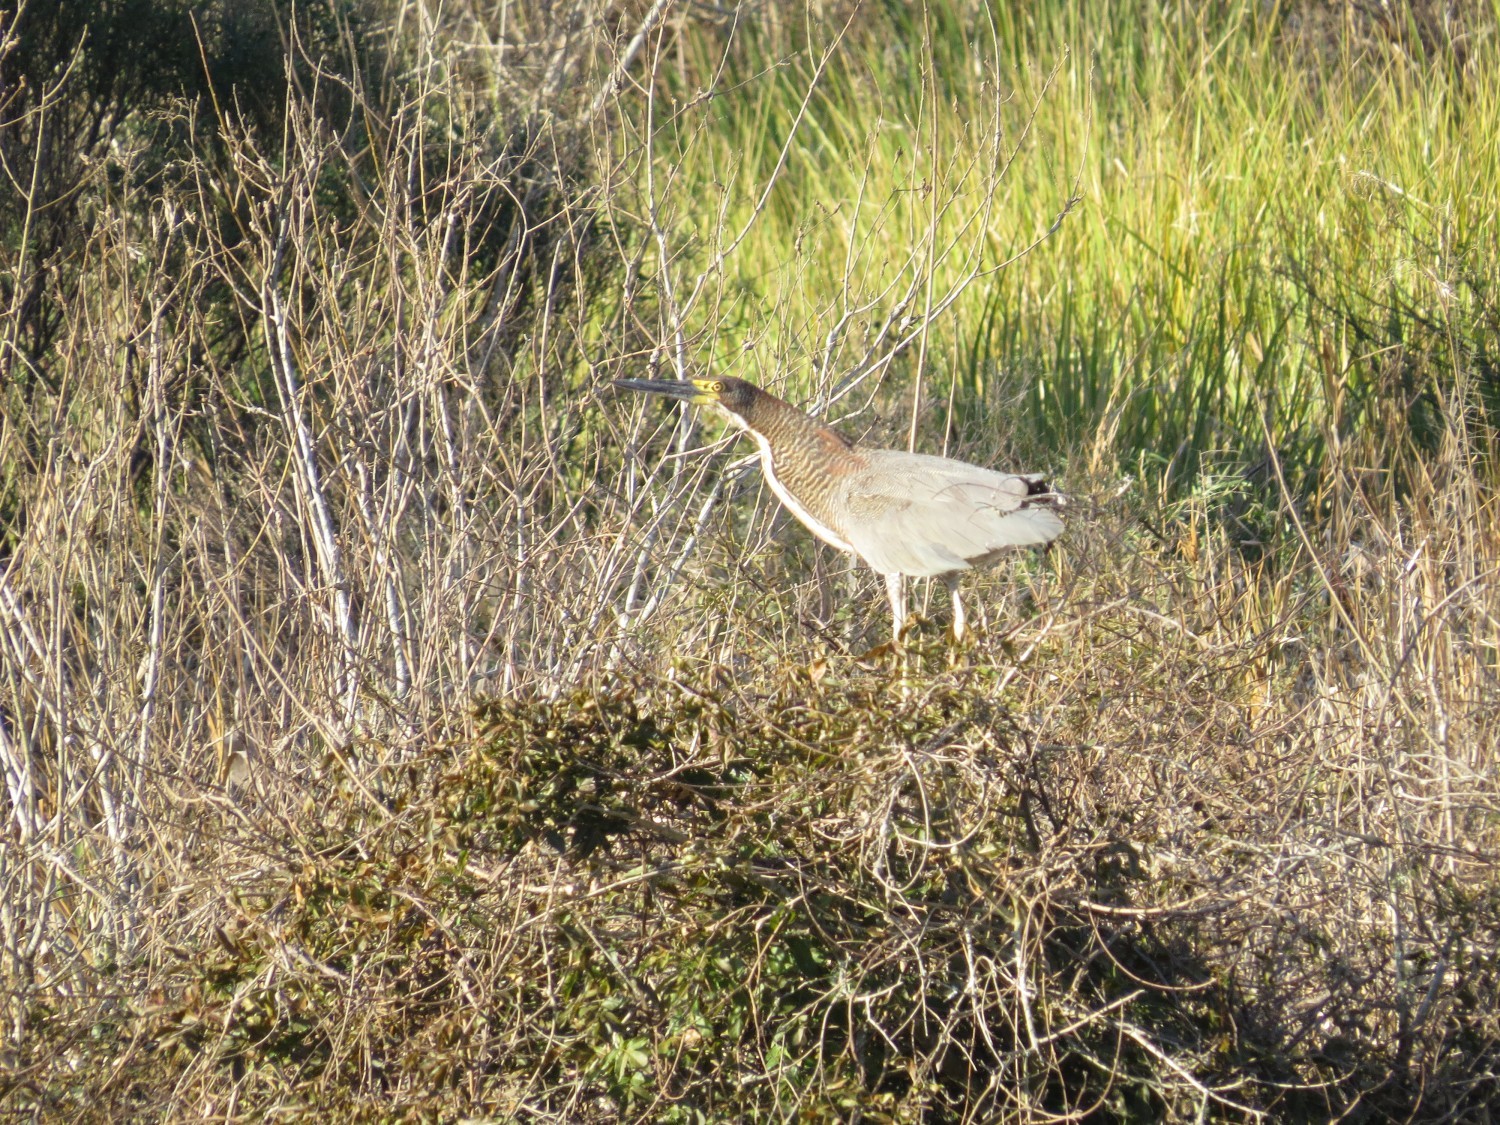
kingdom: Animalia
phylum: Chordata
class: Aves
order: Pelecaniformes
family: Ardeidae
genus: Tigrisoma
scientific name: Tigrisoma lineatum
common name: Rufescent tiger-heron
